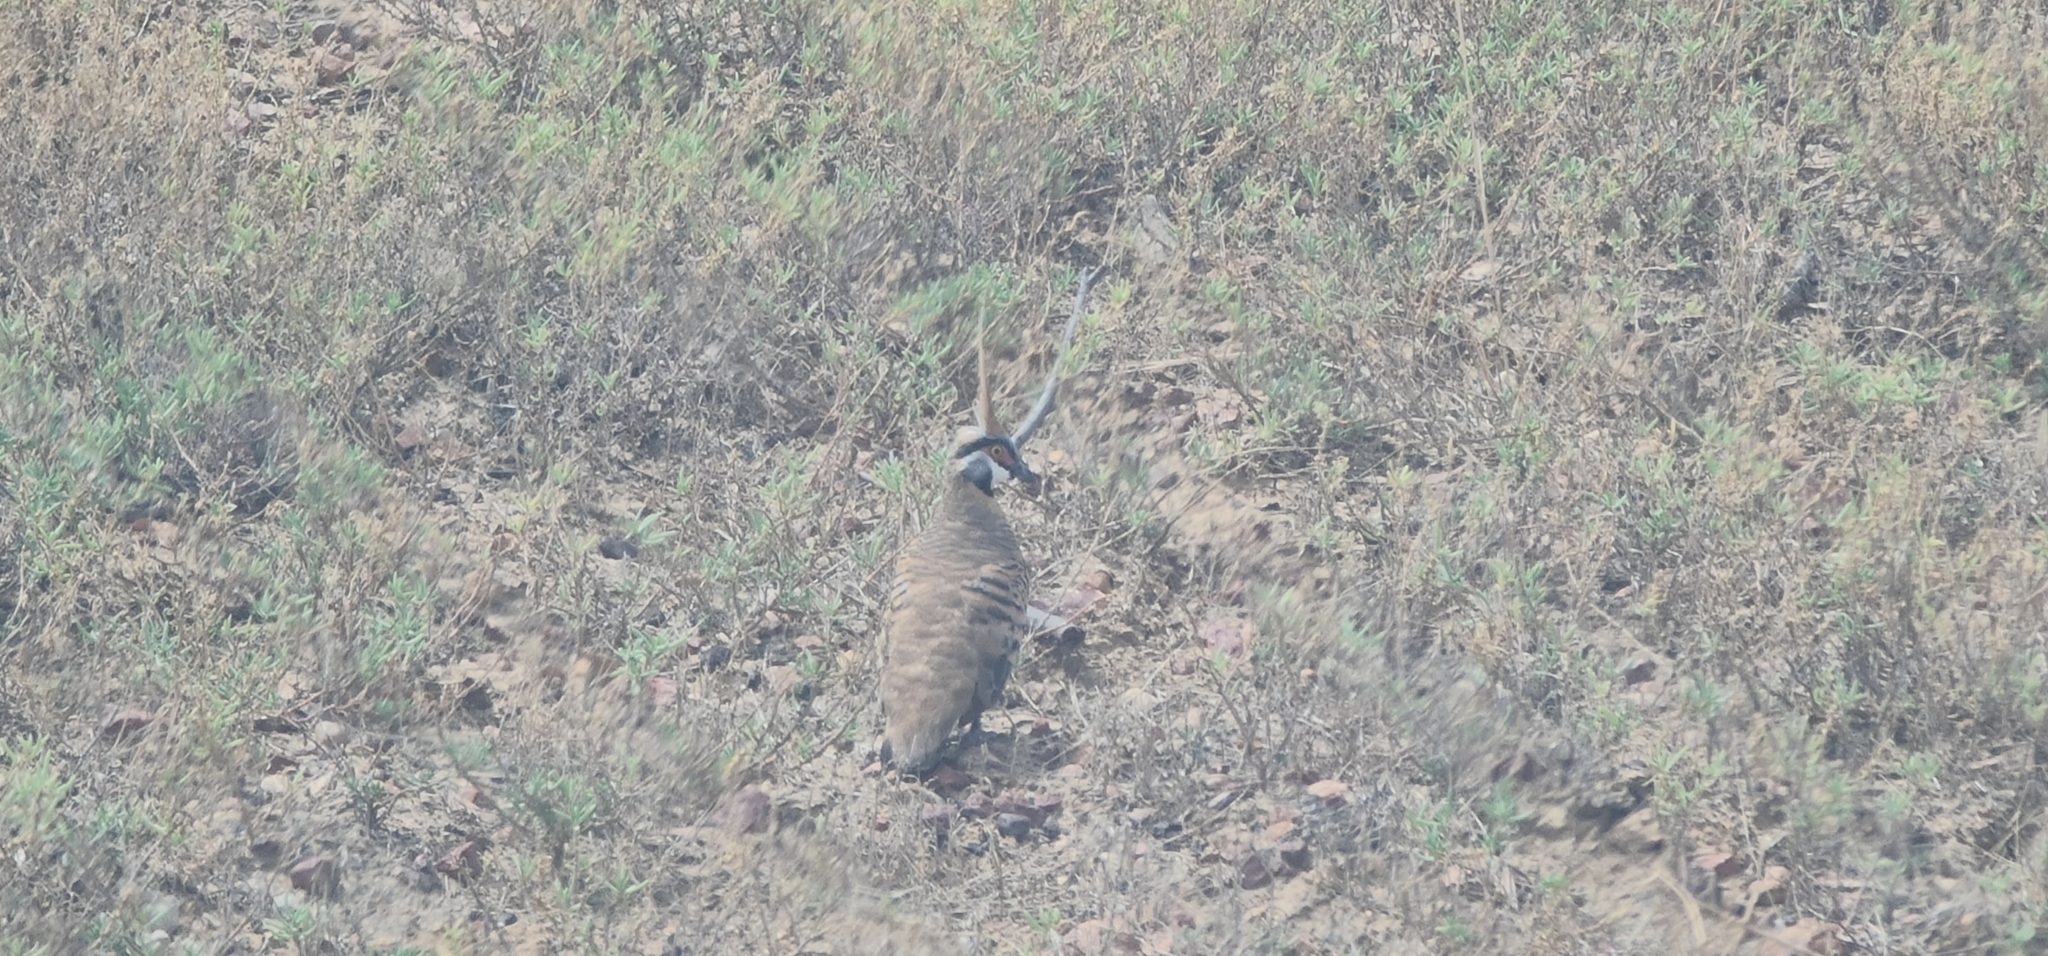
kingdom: Animalia
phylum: Chordata
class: Aves
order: Columbiformes
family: Columbidae
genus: Geophaps
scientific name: Geophaps plumifera
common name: Spinifex pigeon
